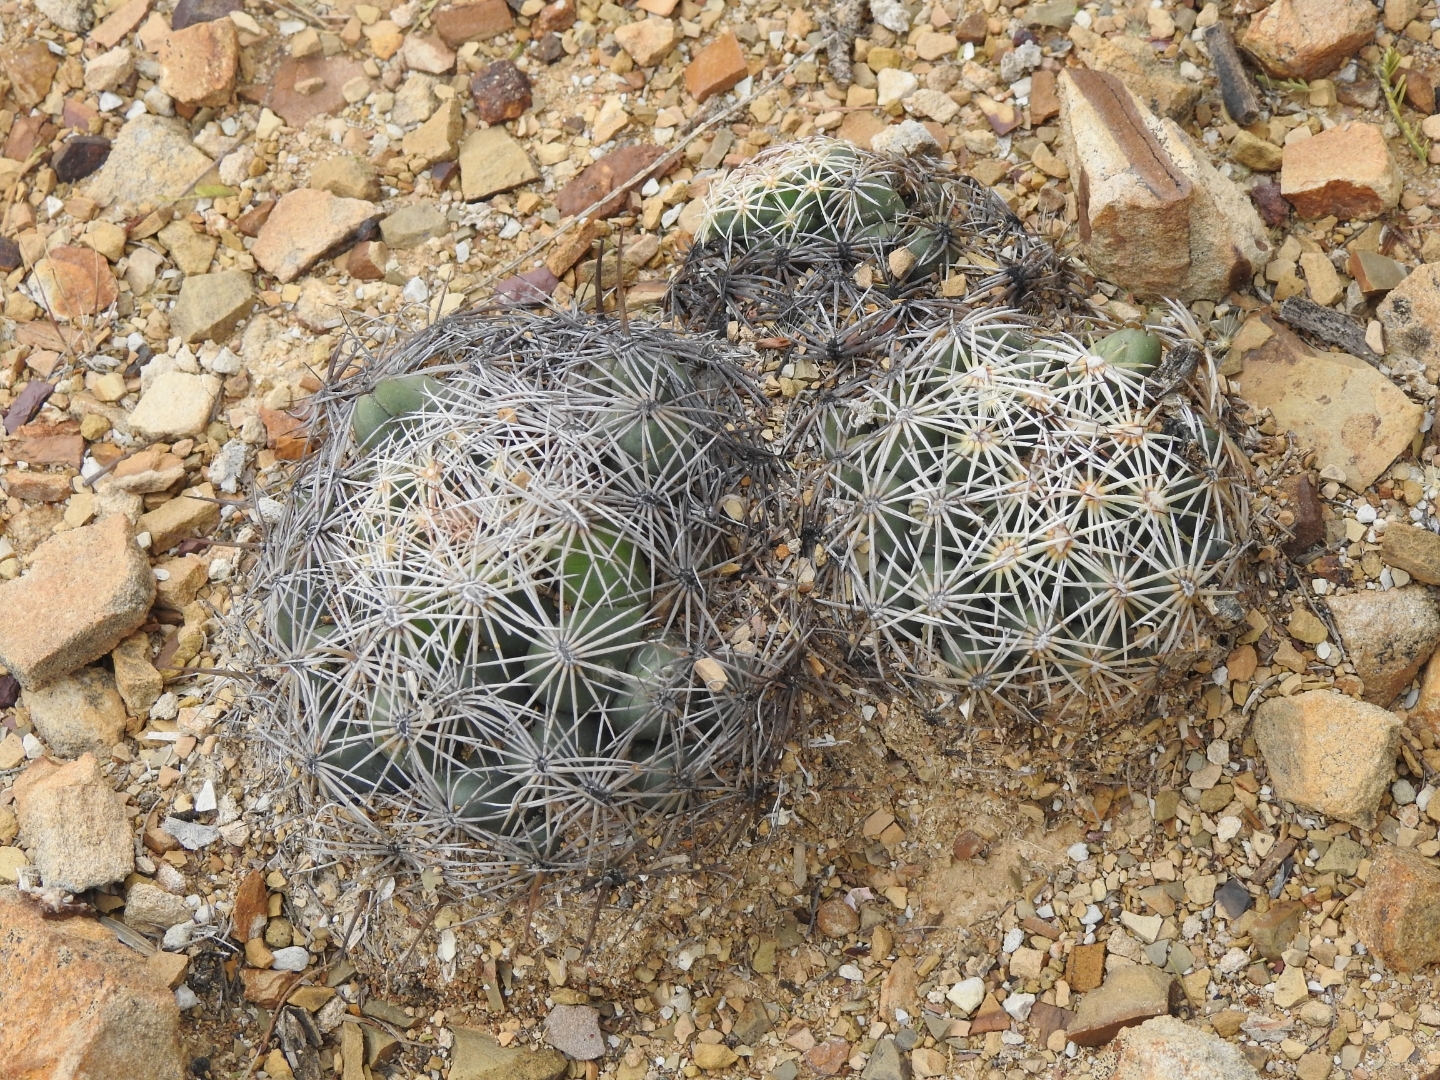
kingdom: Plantae
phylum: Tracheophyta
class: Magnoliopsida
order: Caryophyllales
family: Cactaceae
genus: Coryphantha
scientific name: Coryphantha cornifera
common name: Rhinoceros cactus
